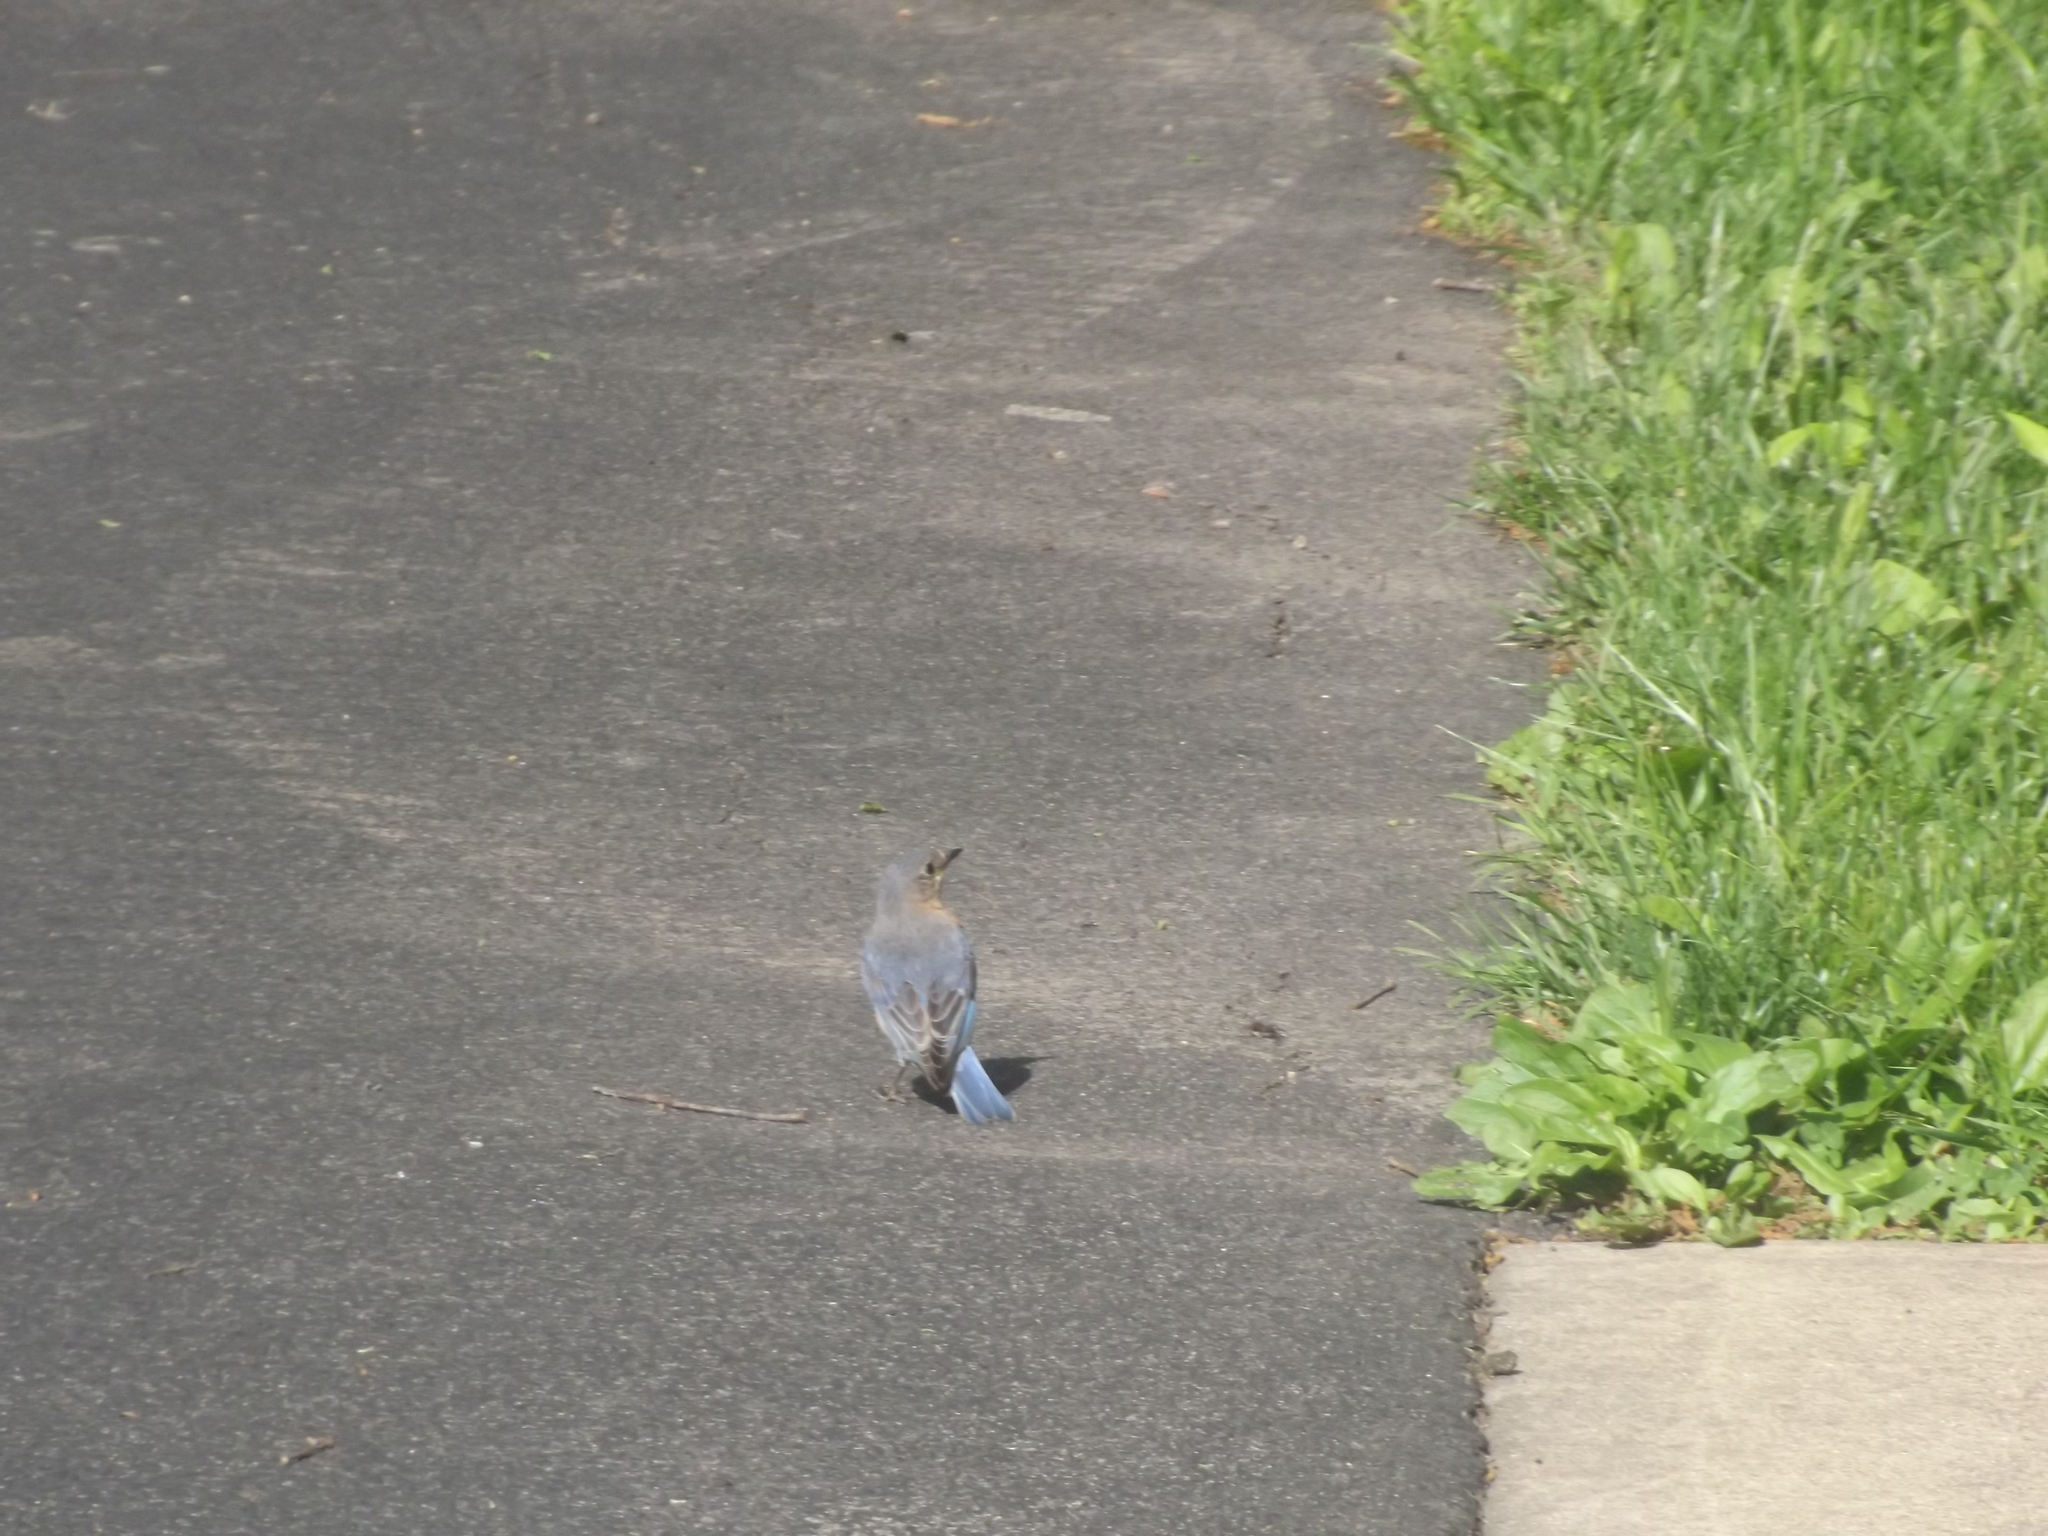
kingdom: Animalia
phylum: Chordata
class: Aves
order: Passeriformes
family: Turdidae
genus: Sialia
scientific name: Sialia sialis
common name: Eastern bluebird
